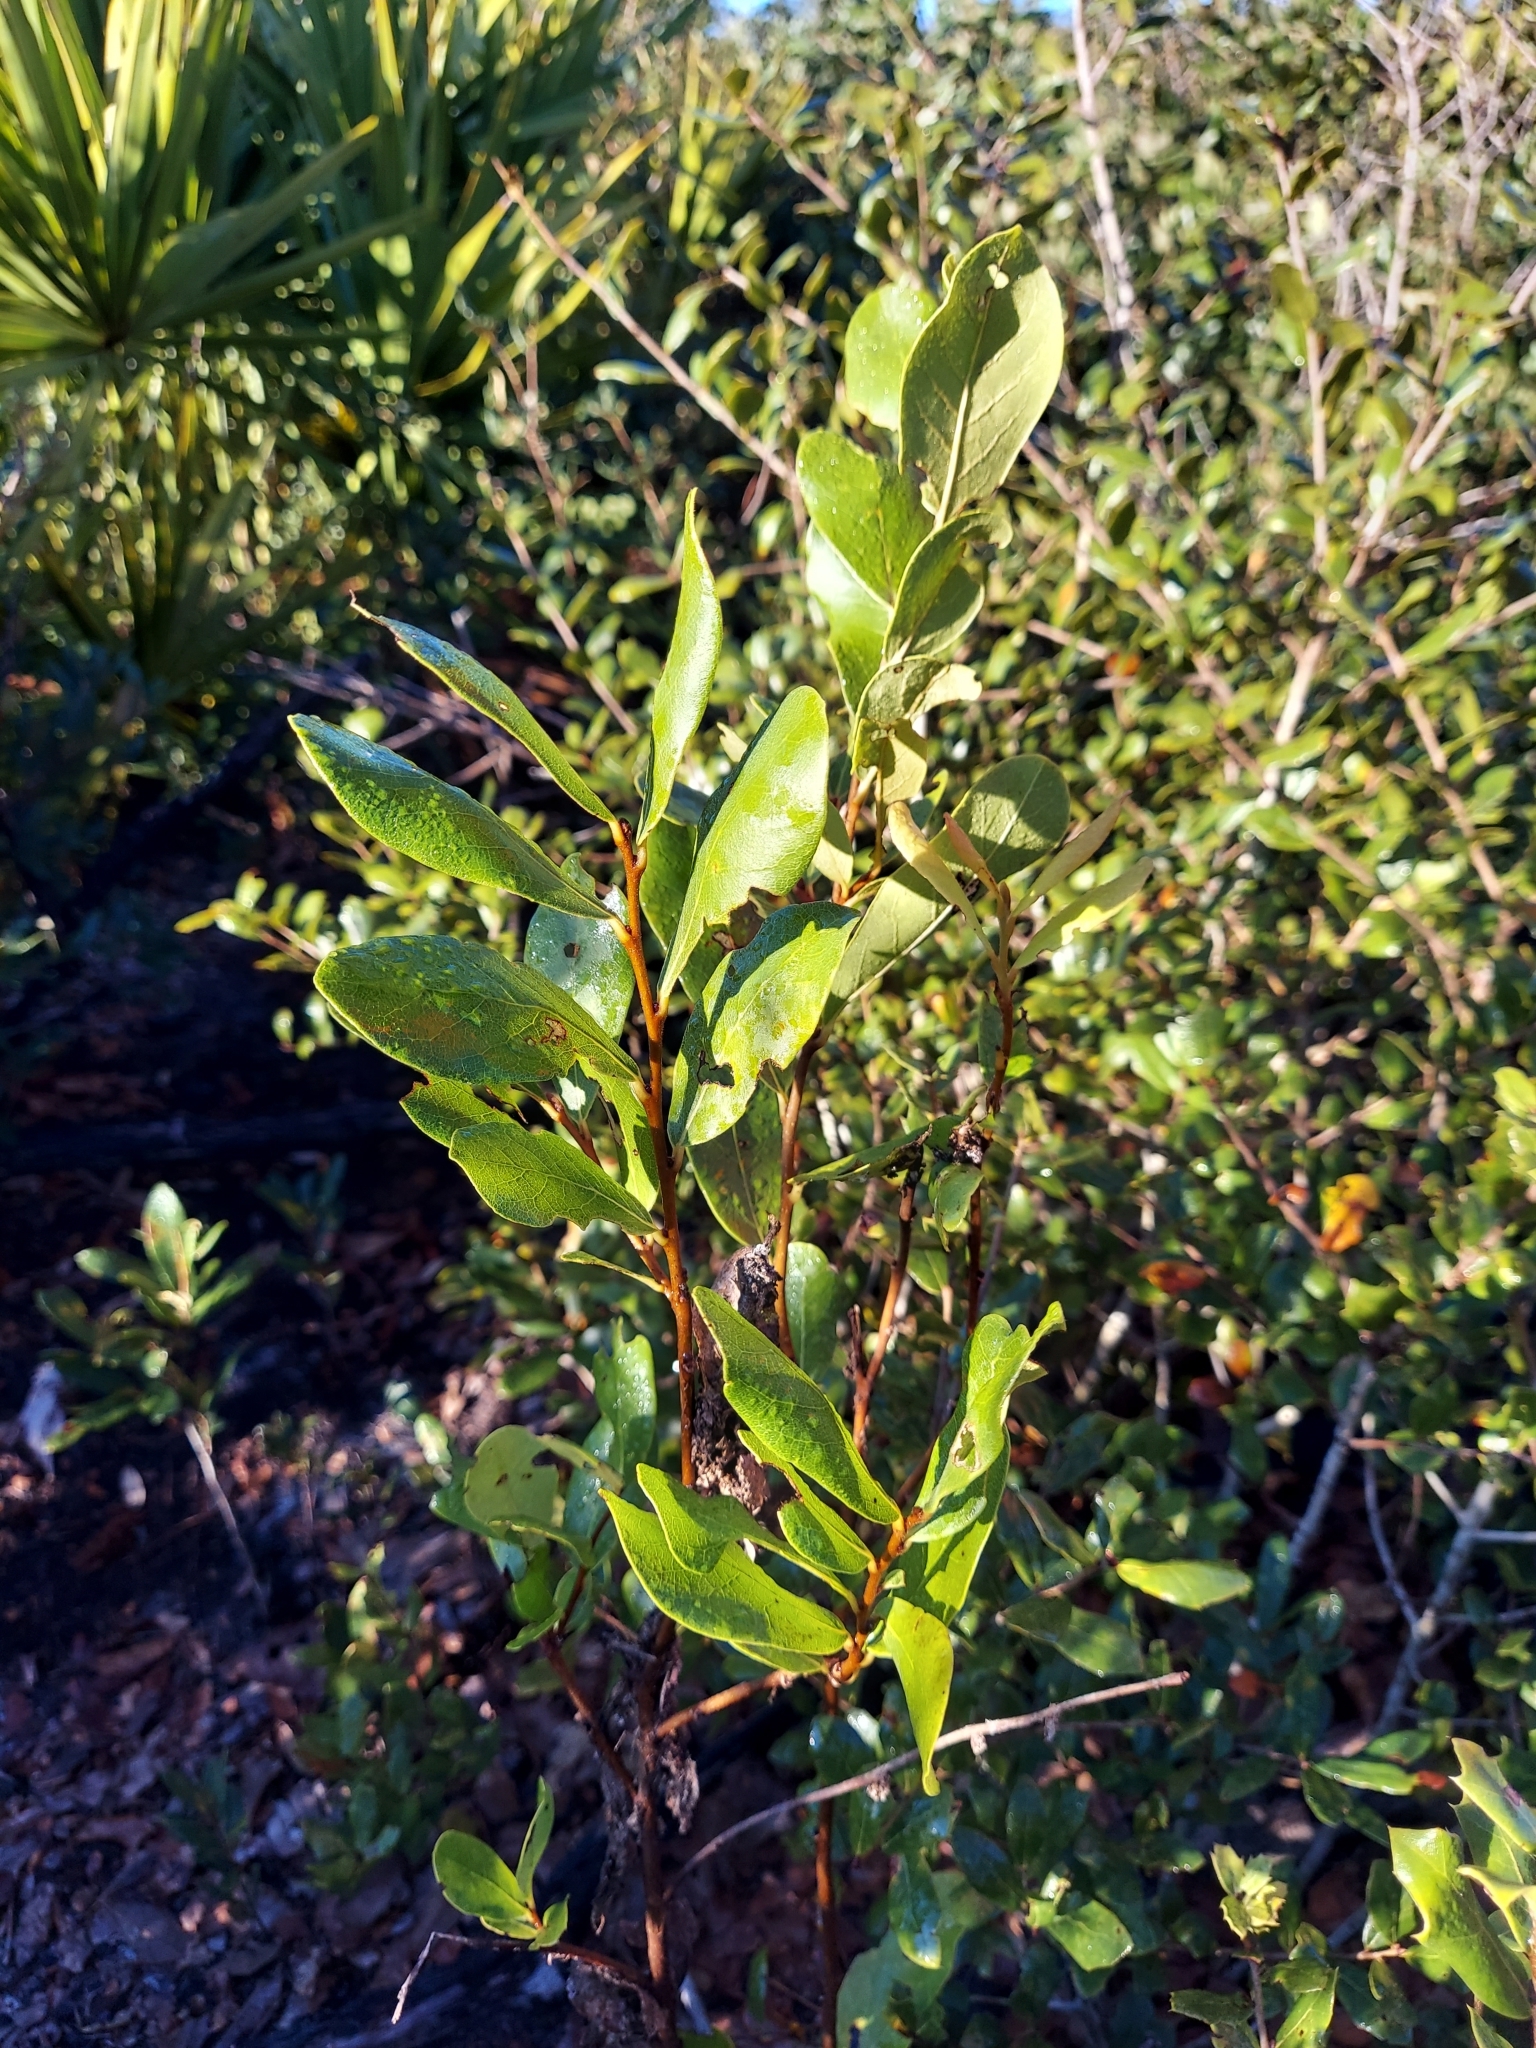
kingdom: Plantae
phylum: Tracheophyta
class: Magnoliopsida
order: Magnoliales
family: Annonaceae
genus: Asimina
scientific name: Asimina obovata
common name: Flag pawpaw
